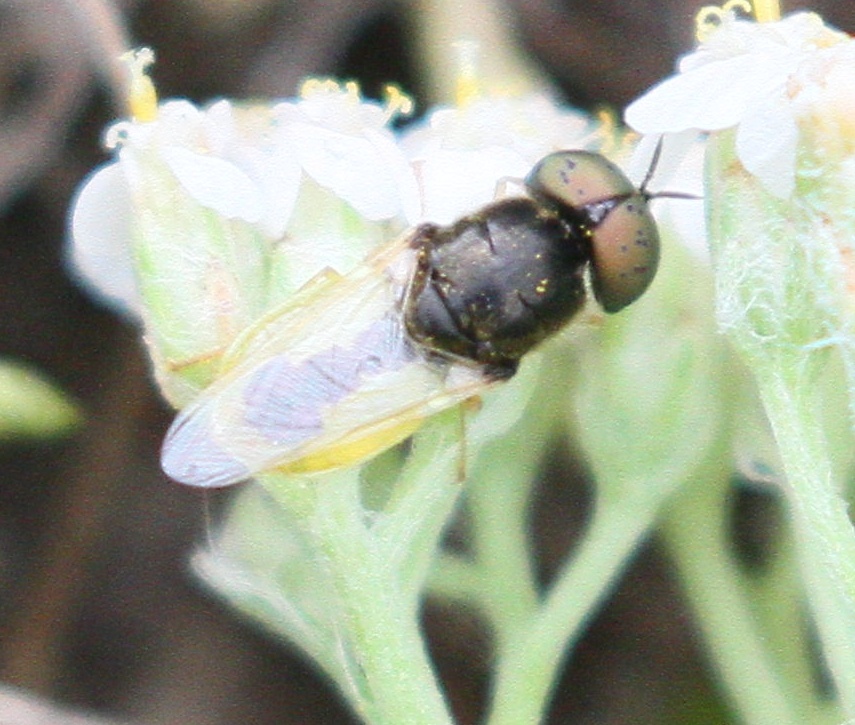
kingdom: Animalia
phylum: Arthropoda
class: Insecta
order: Diptera
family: Stratiomyidae
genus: Oplodontha
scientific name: Oplodontha viridula
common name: Common green colonel
